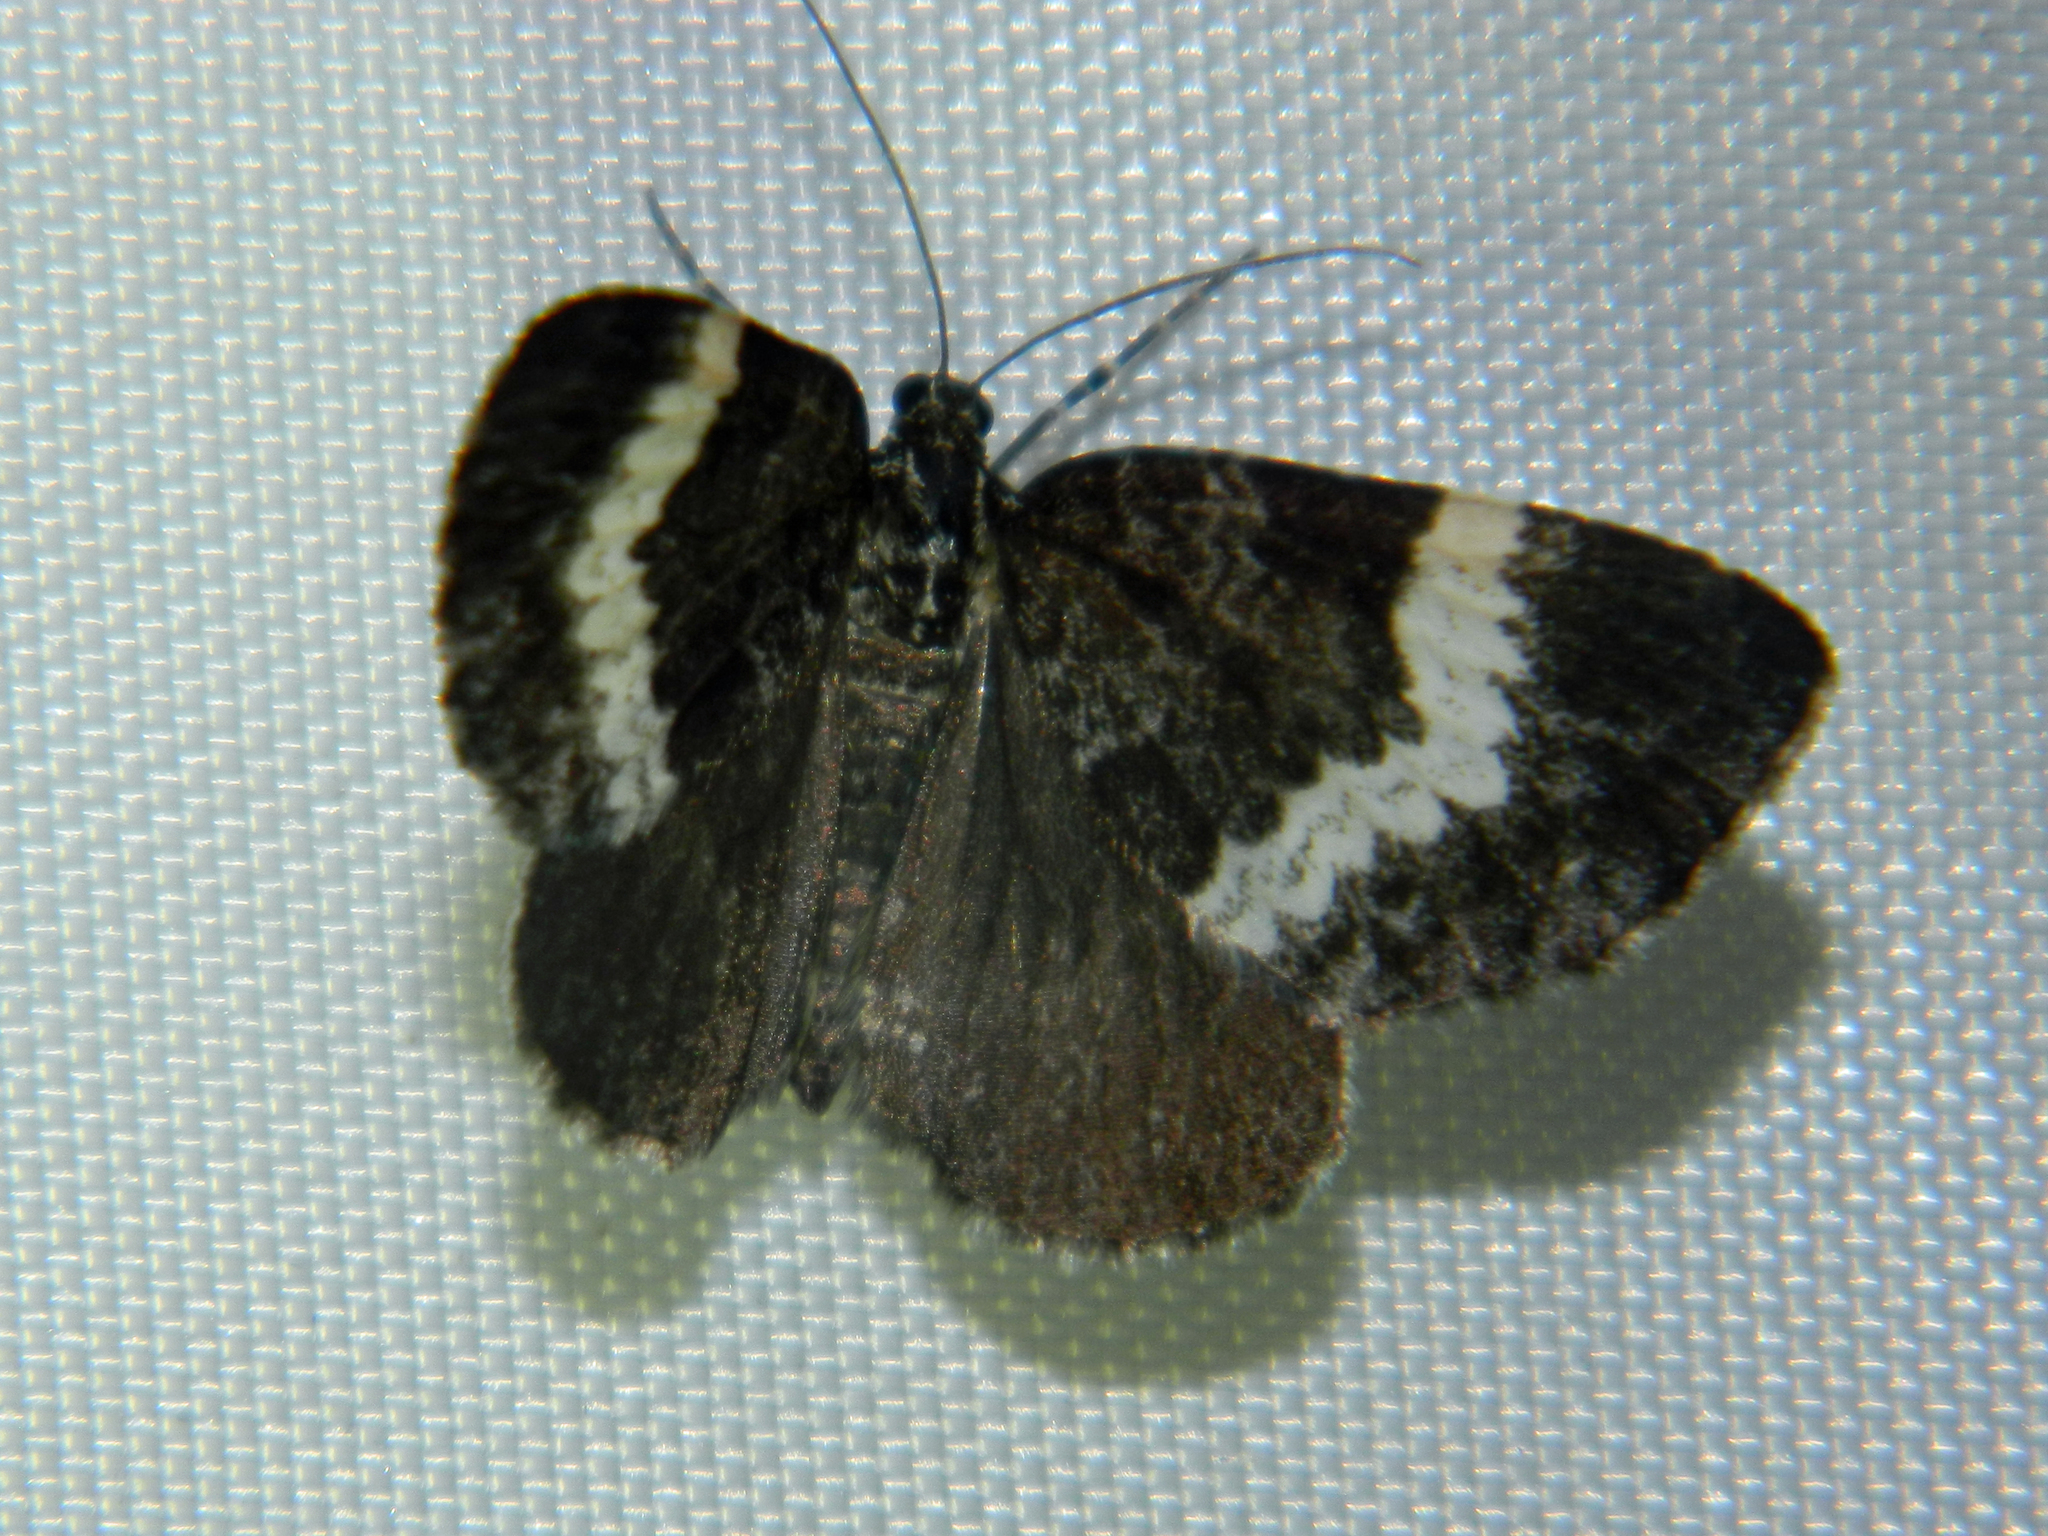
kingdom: Animalia
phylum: Arthropoda
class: Insecta
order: Lepidoptera
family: Geometridae
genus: Spargania
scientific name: Spargania luctuata
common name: White-banded carpet
